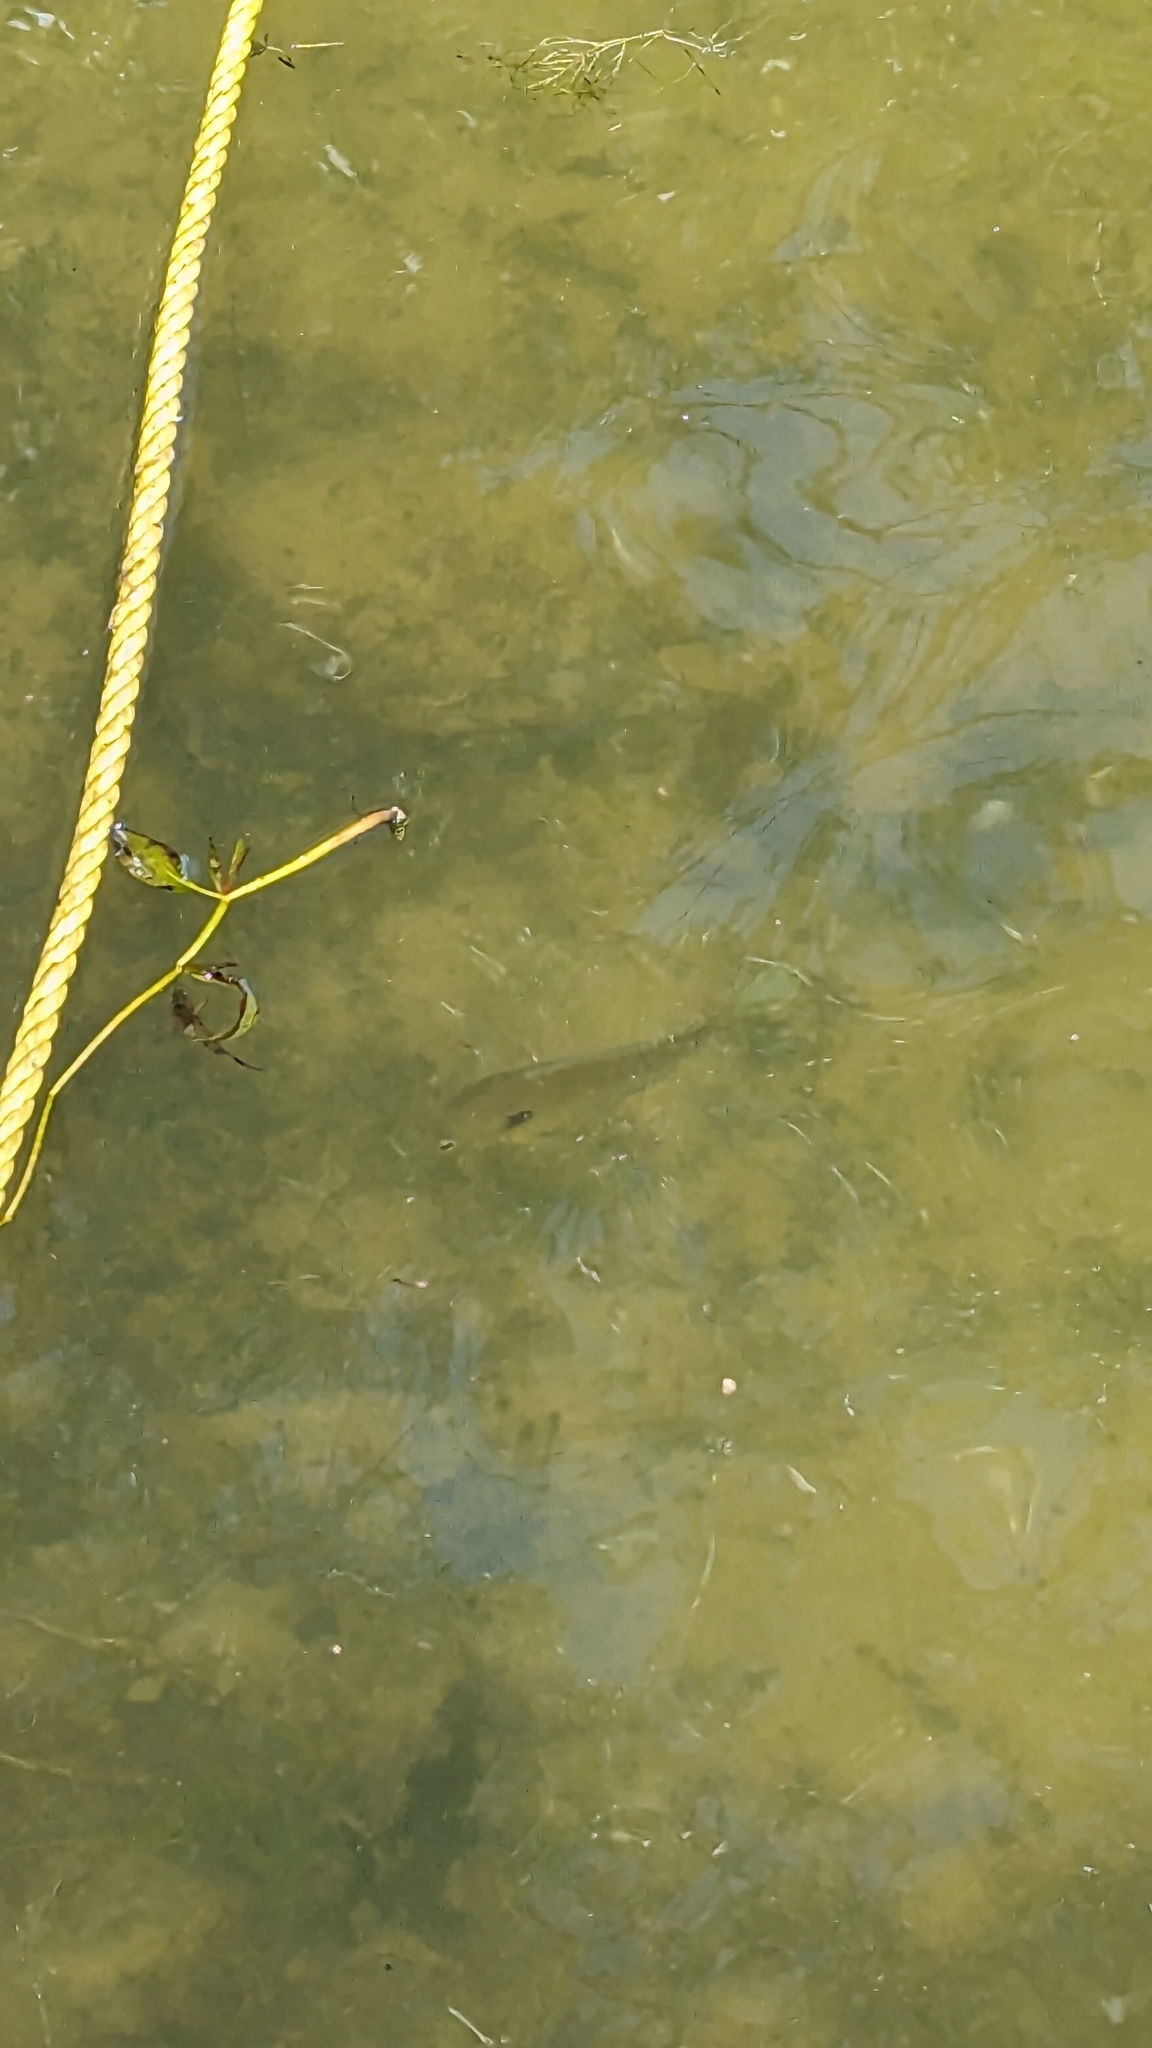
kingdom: Animalia
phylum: Chordata
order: Perciformes
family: Centrarchidae
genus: Lepomis
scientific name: Lepomis macrochirus
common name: Bluegill
